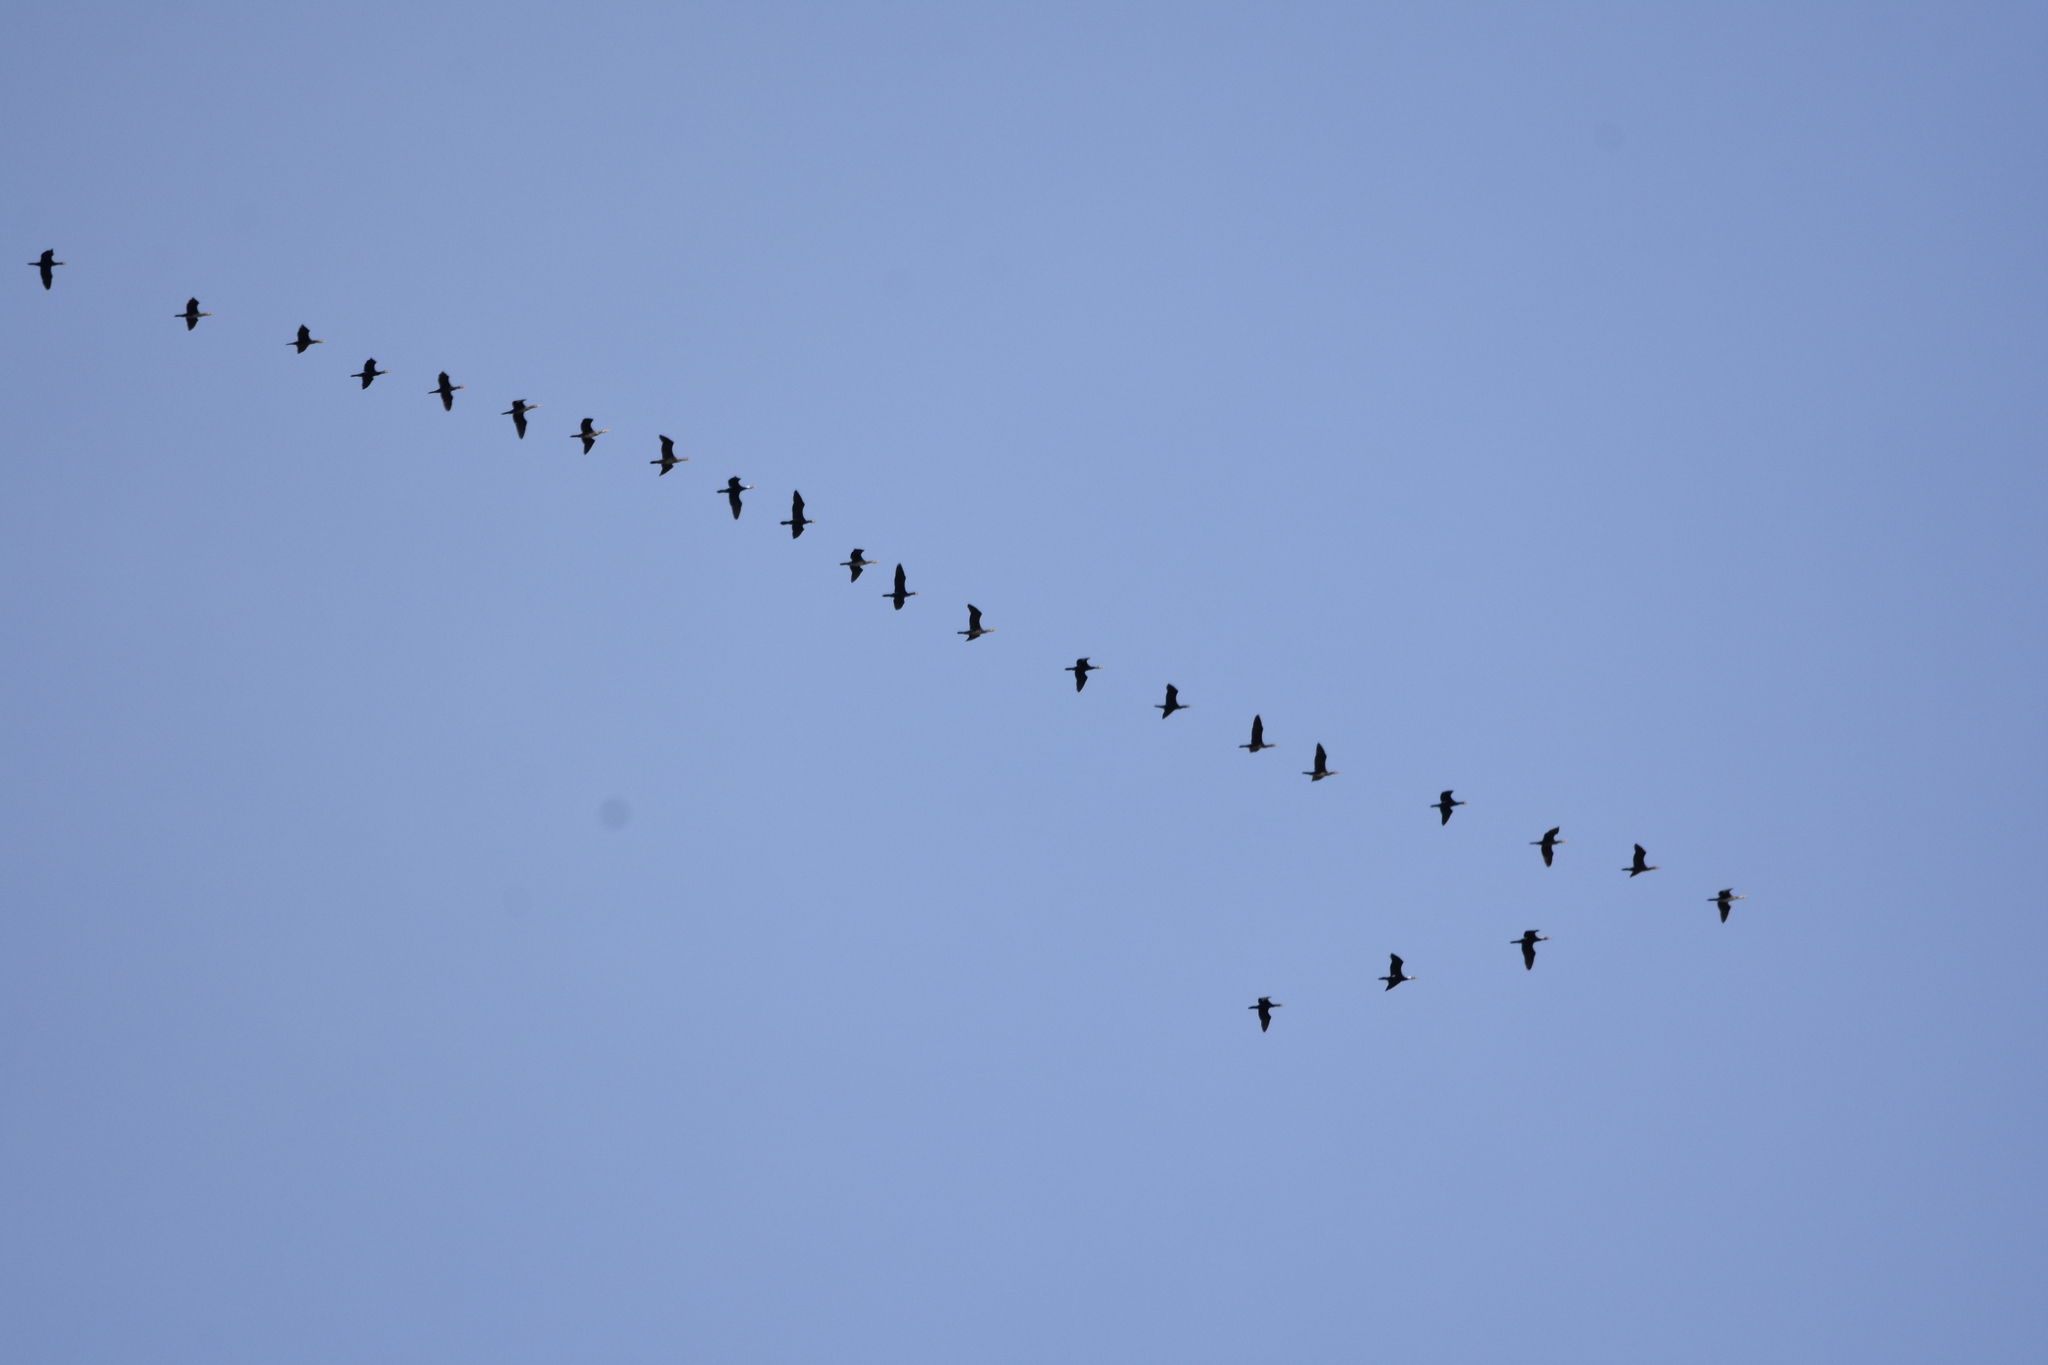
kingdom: Animalia
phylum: Chordata
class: Aves
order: Suliformes
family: Phalacrocoracidae
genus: Phalacrocorax
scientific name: Phalacrocorax carbo
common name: Great cormorant
